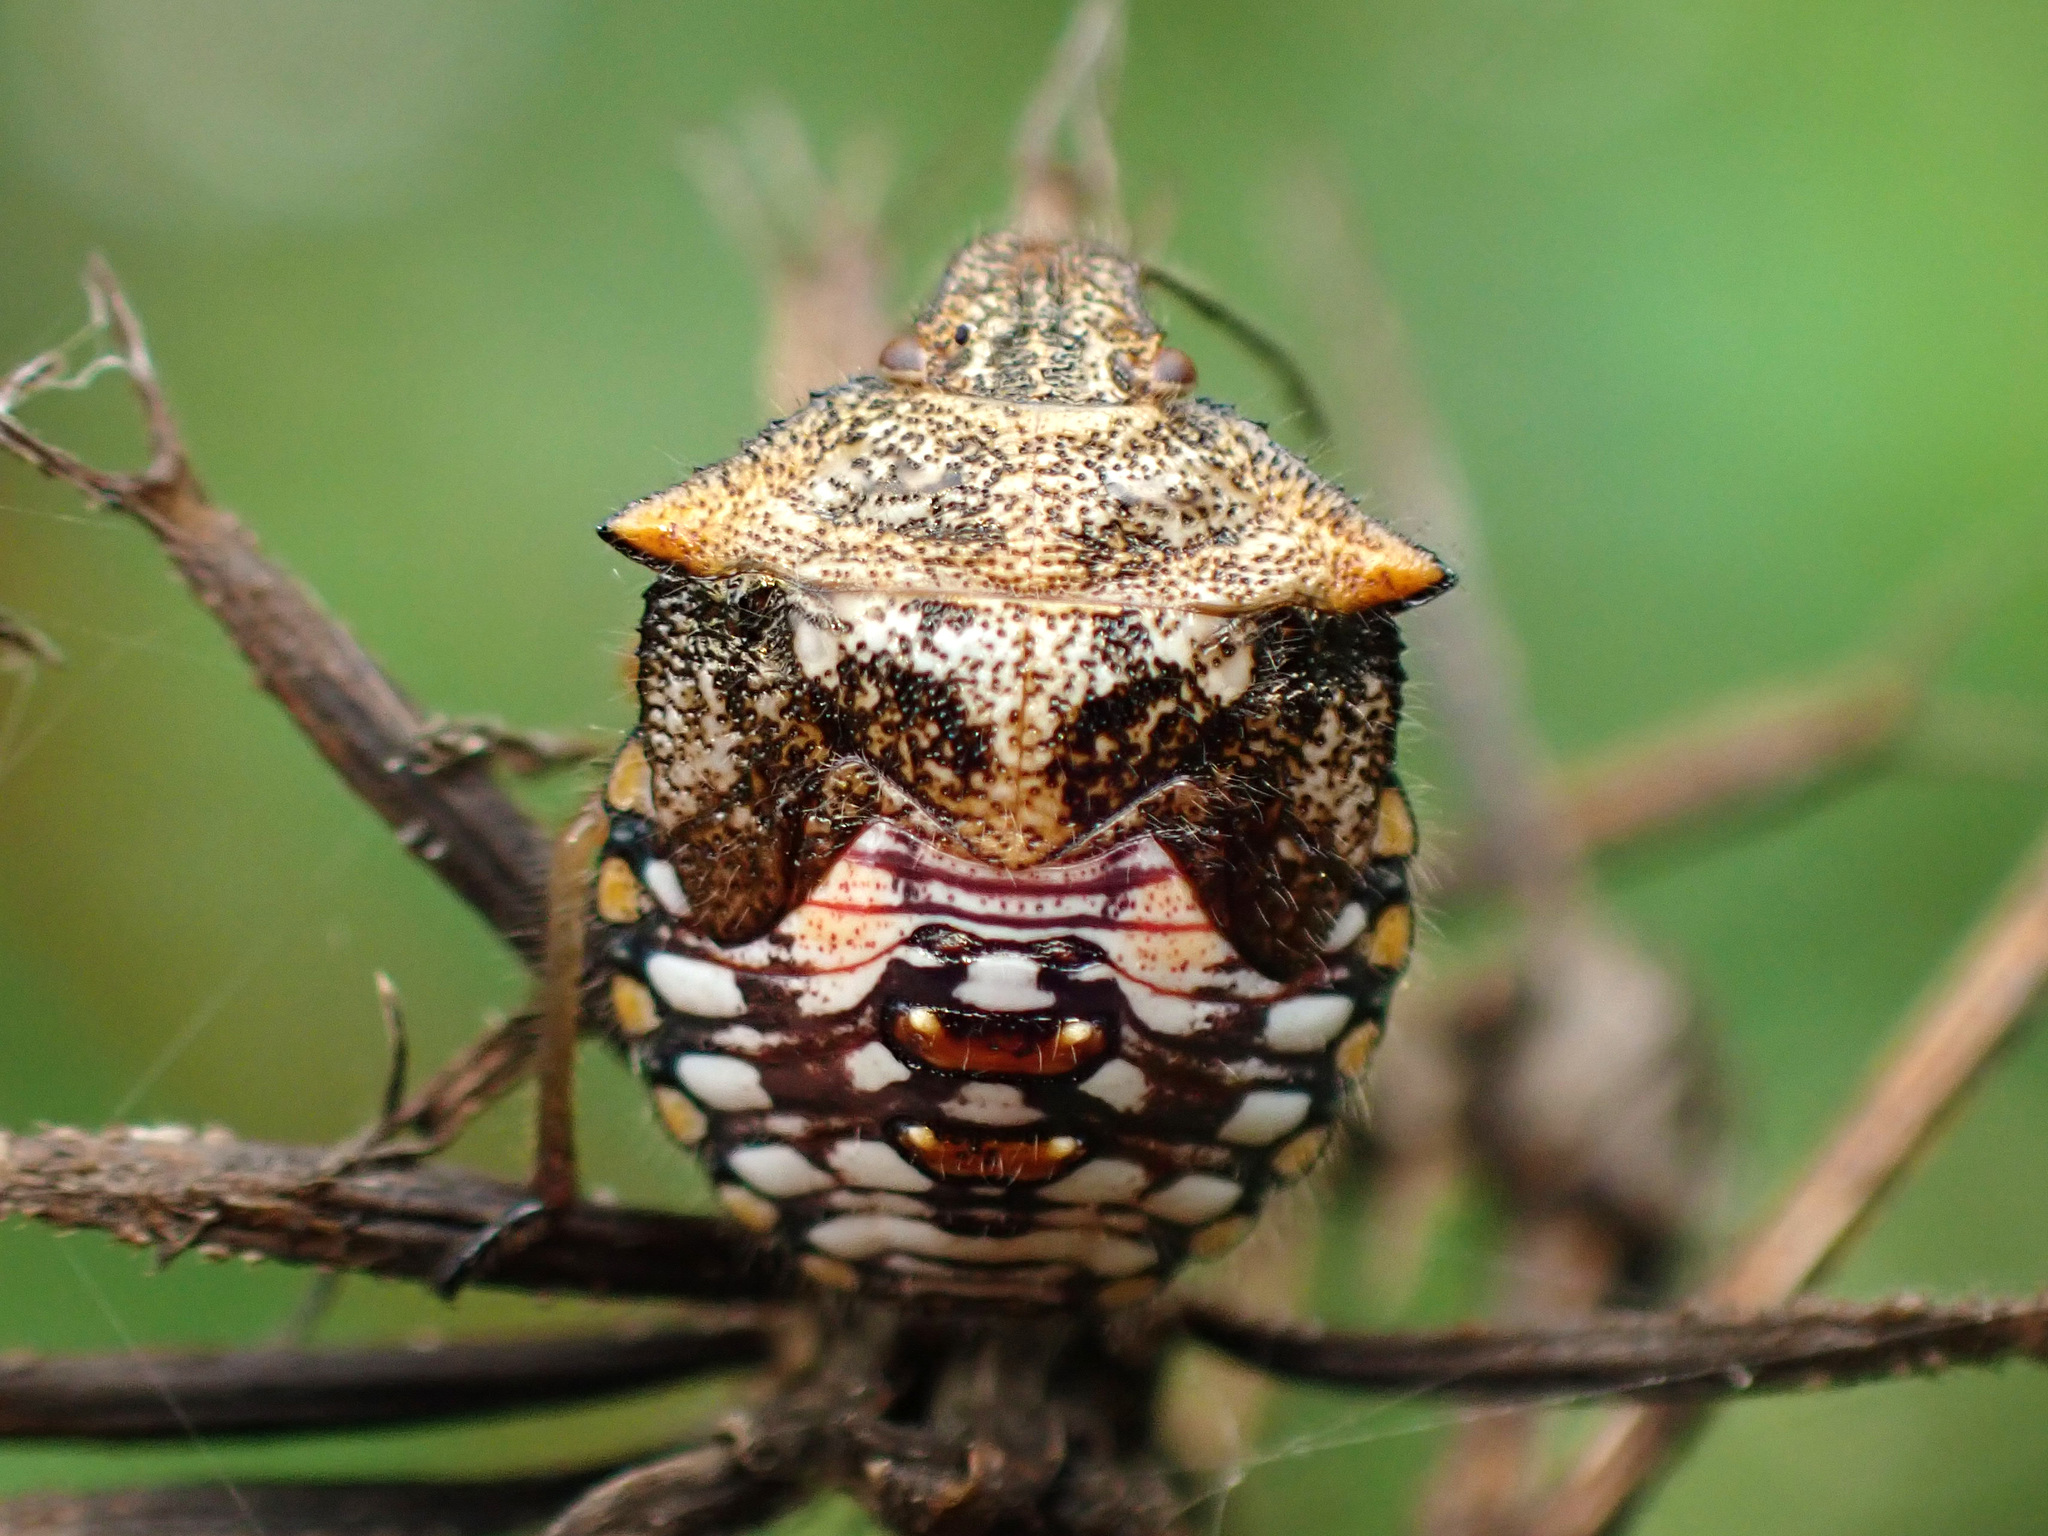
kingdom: Animalia
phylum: Arthropoda
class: Insecta
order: Hemiptera
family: Pentatomidae
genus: Thyanta
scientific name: Thyanta perditor
